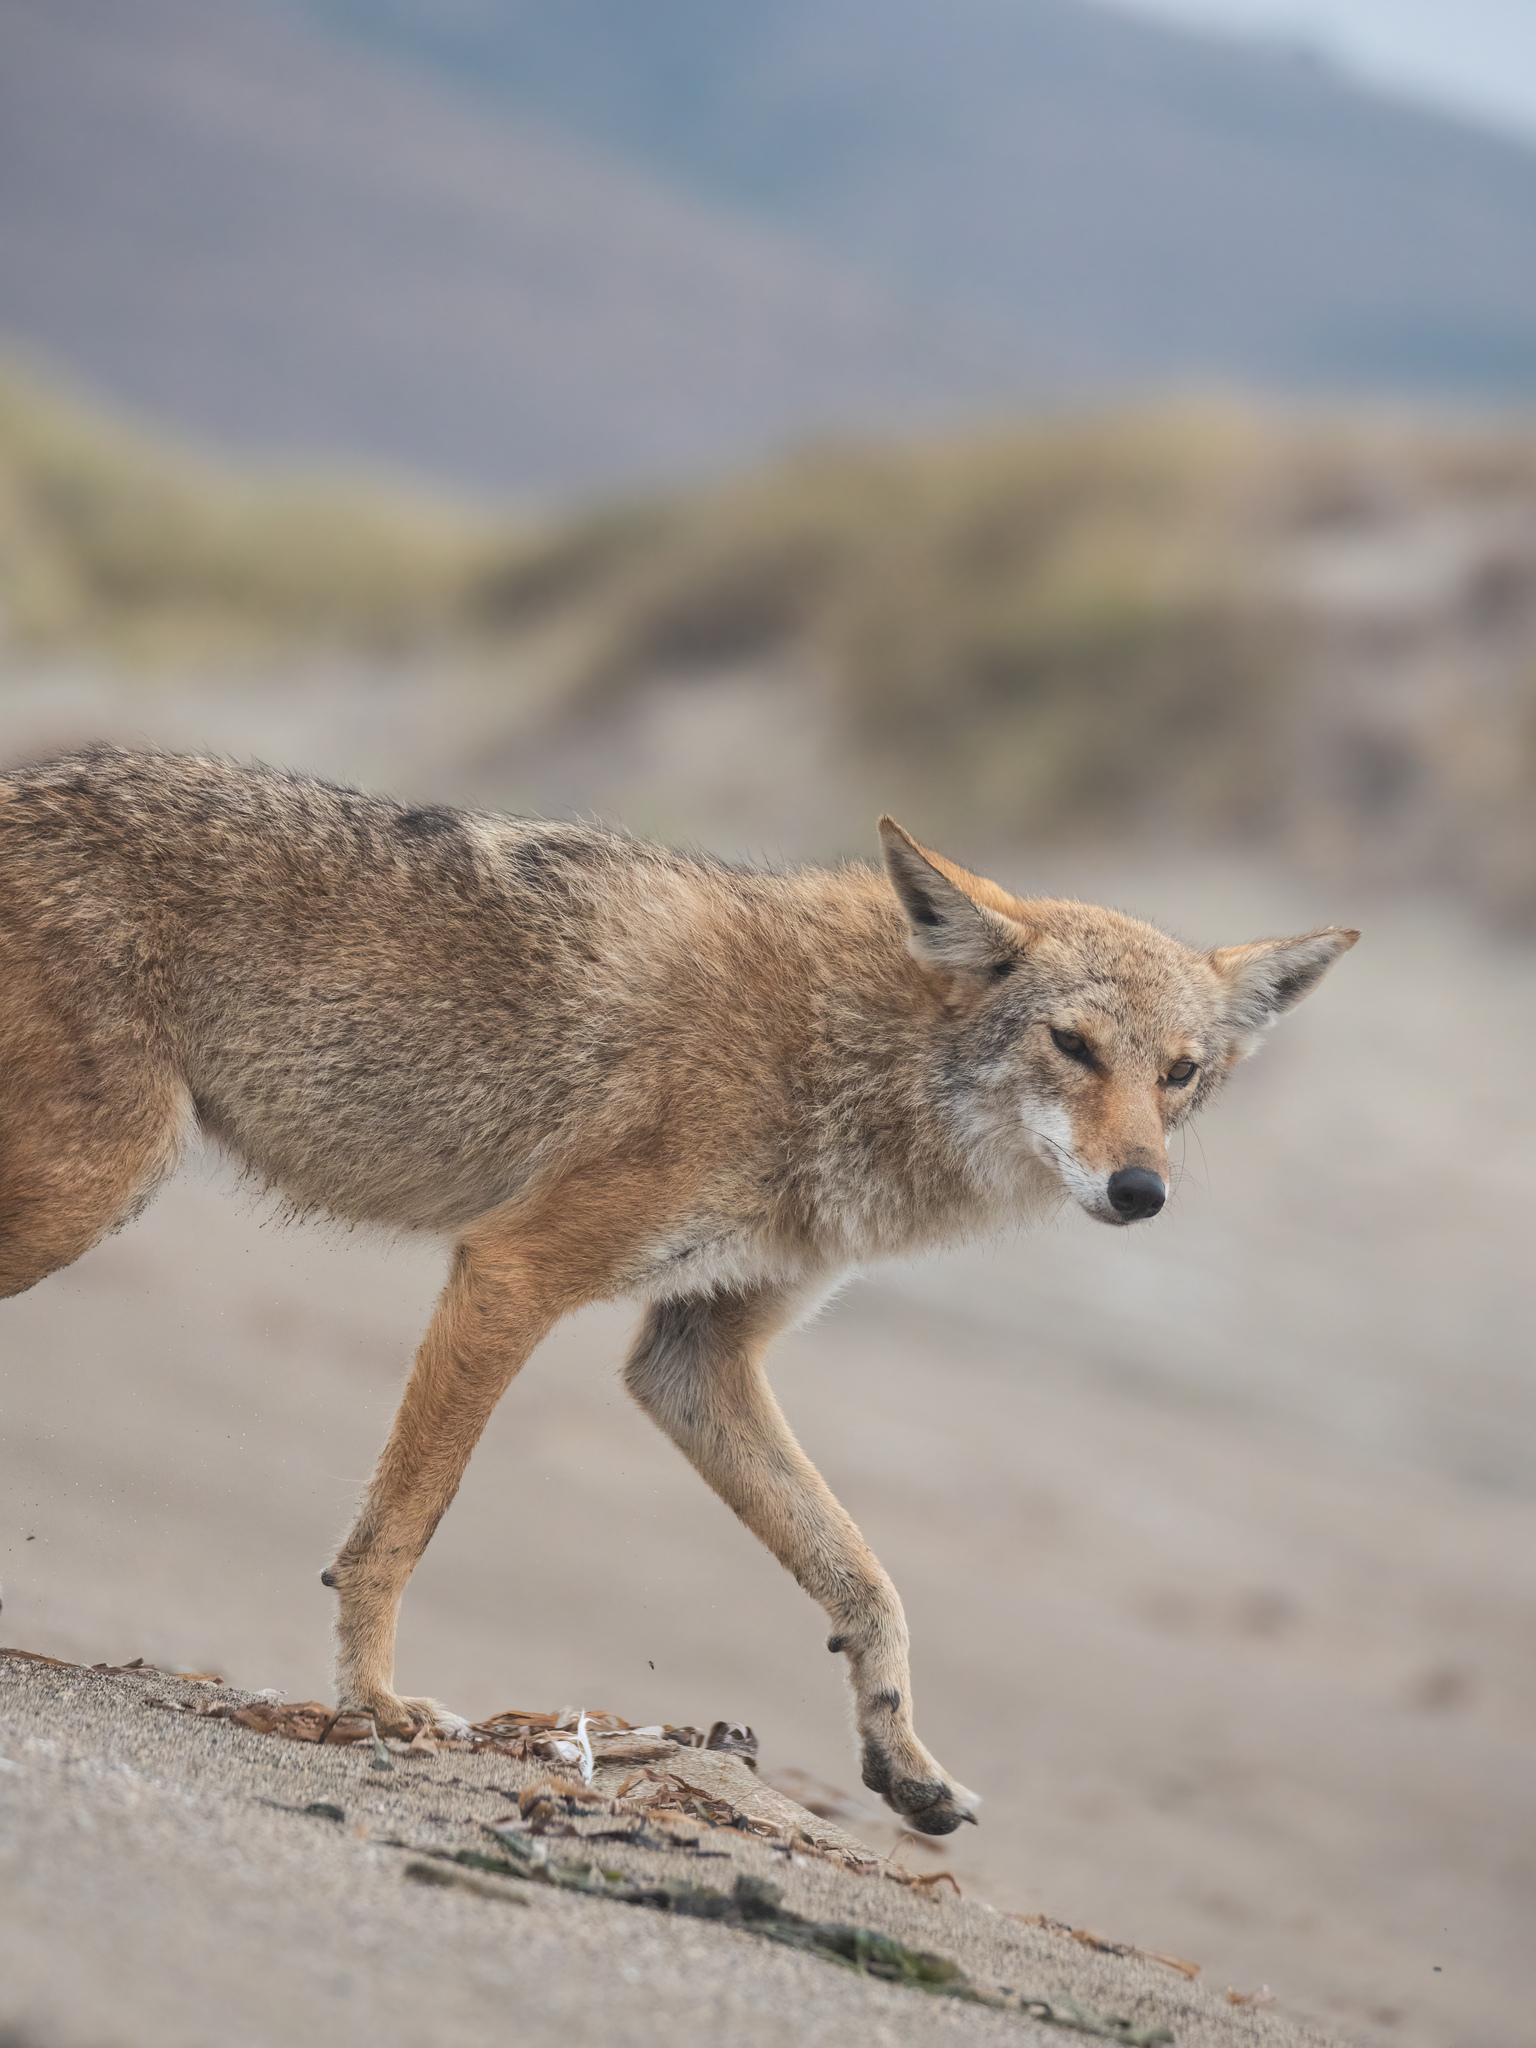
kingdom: Animalia
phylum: Chordata
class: Mammalia
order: Carnivora
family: Canidae
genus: Canis
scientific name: Canis latrans
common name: Coyote
